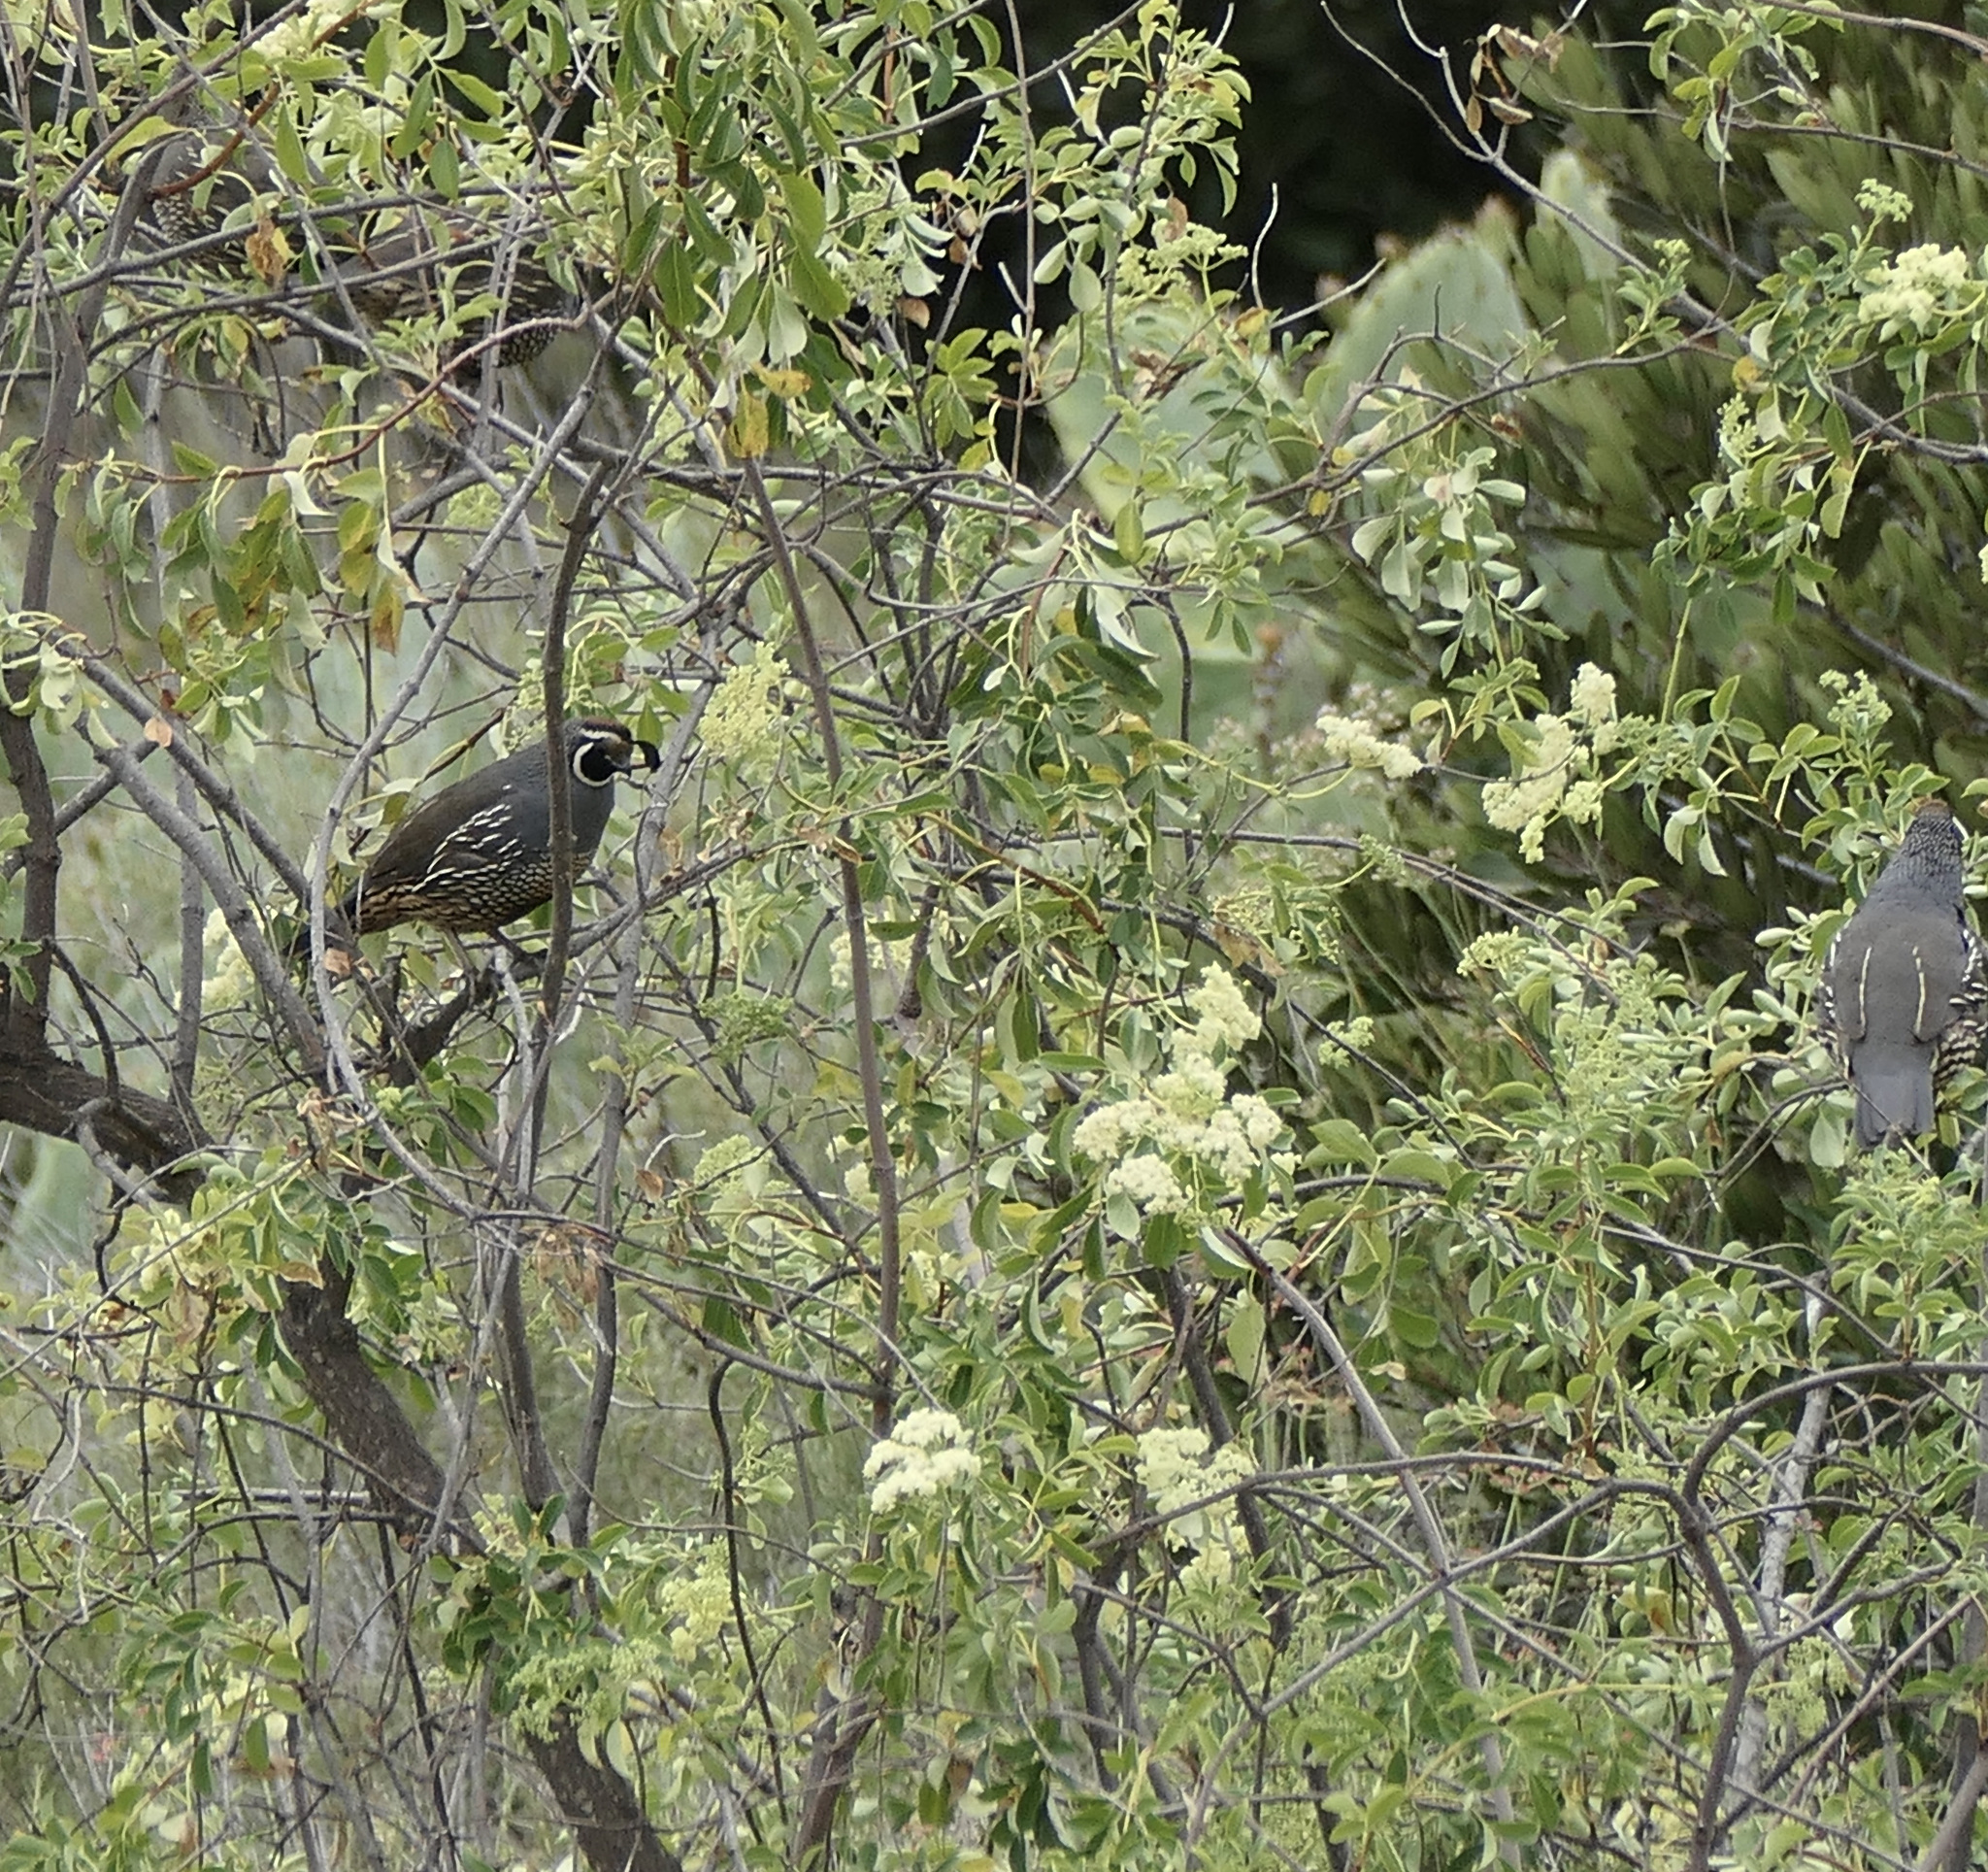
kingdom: Animalia
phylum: Chordata
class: Aves
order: Galliformes
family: Odontophoridae
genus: Callipepla
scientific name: Callipepla californica
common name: California quail
